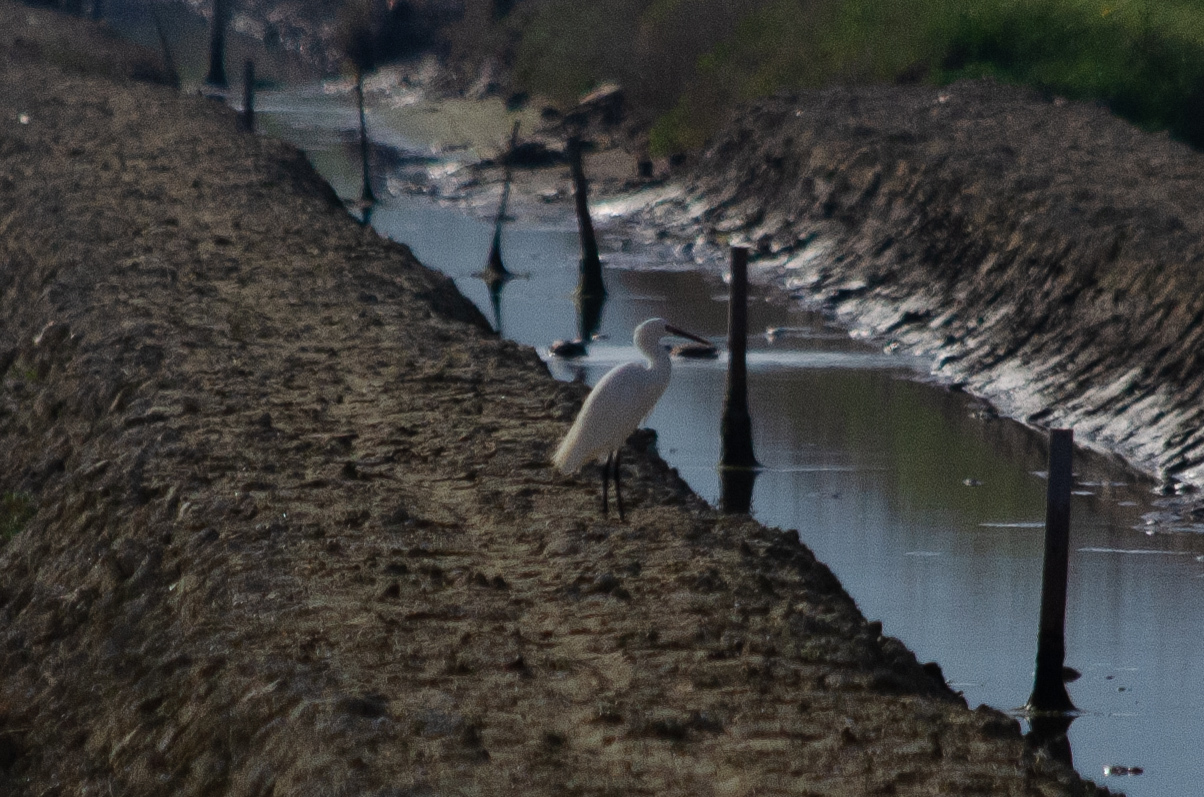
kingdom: Animalia
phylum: Chordata
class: Aves
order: Pelecaniformes
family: Ardeidae
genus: Egretta
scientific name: Egretta garzetta
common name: Little egret
